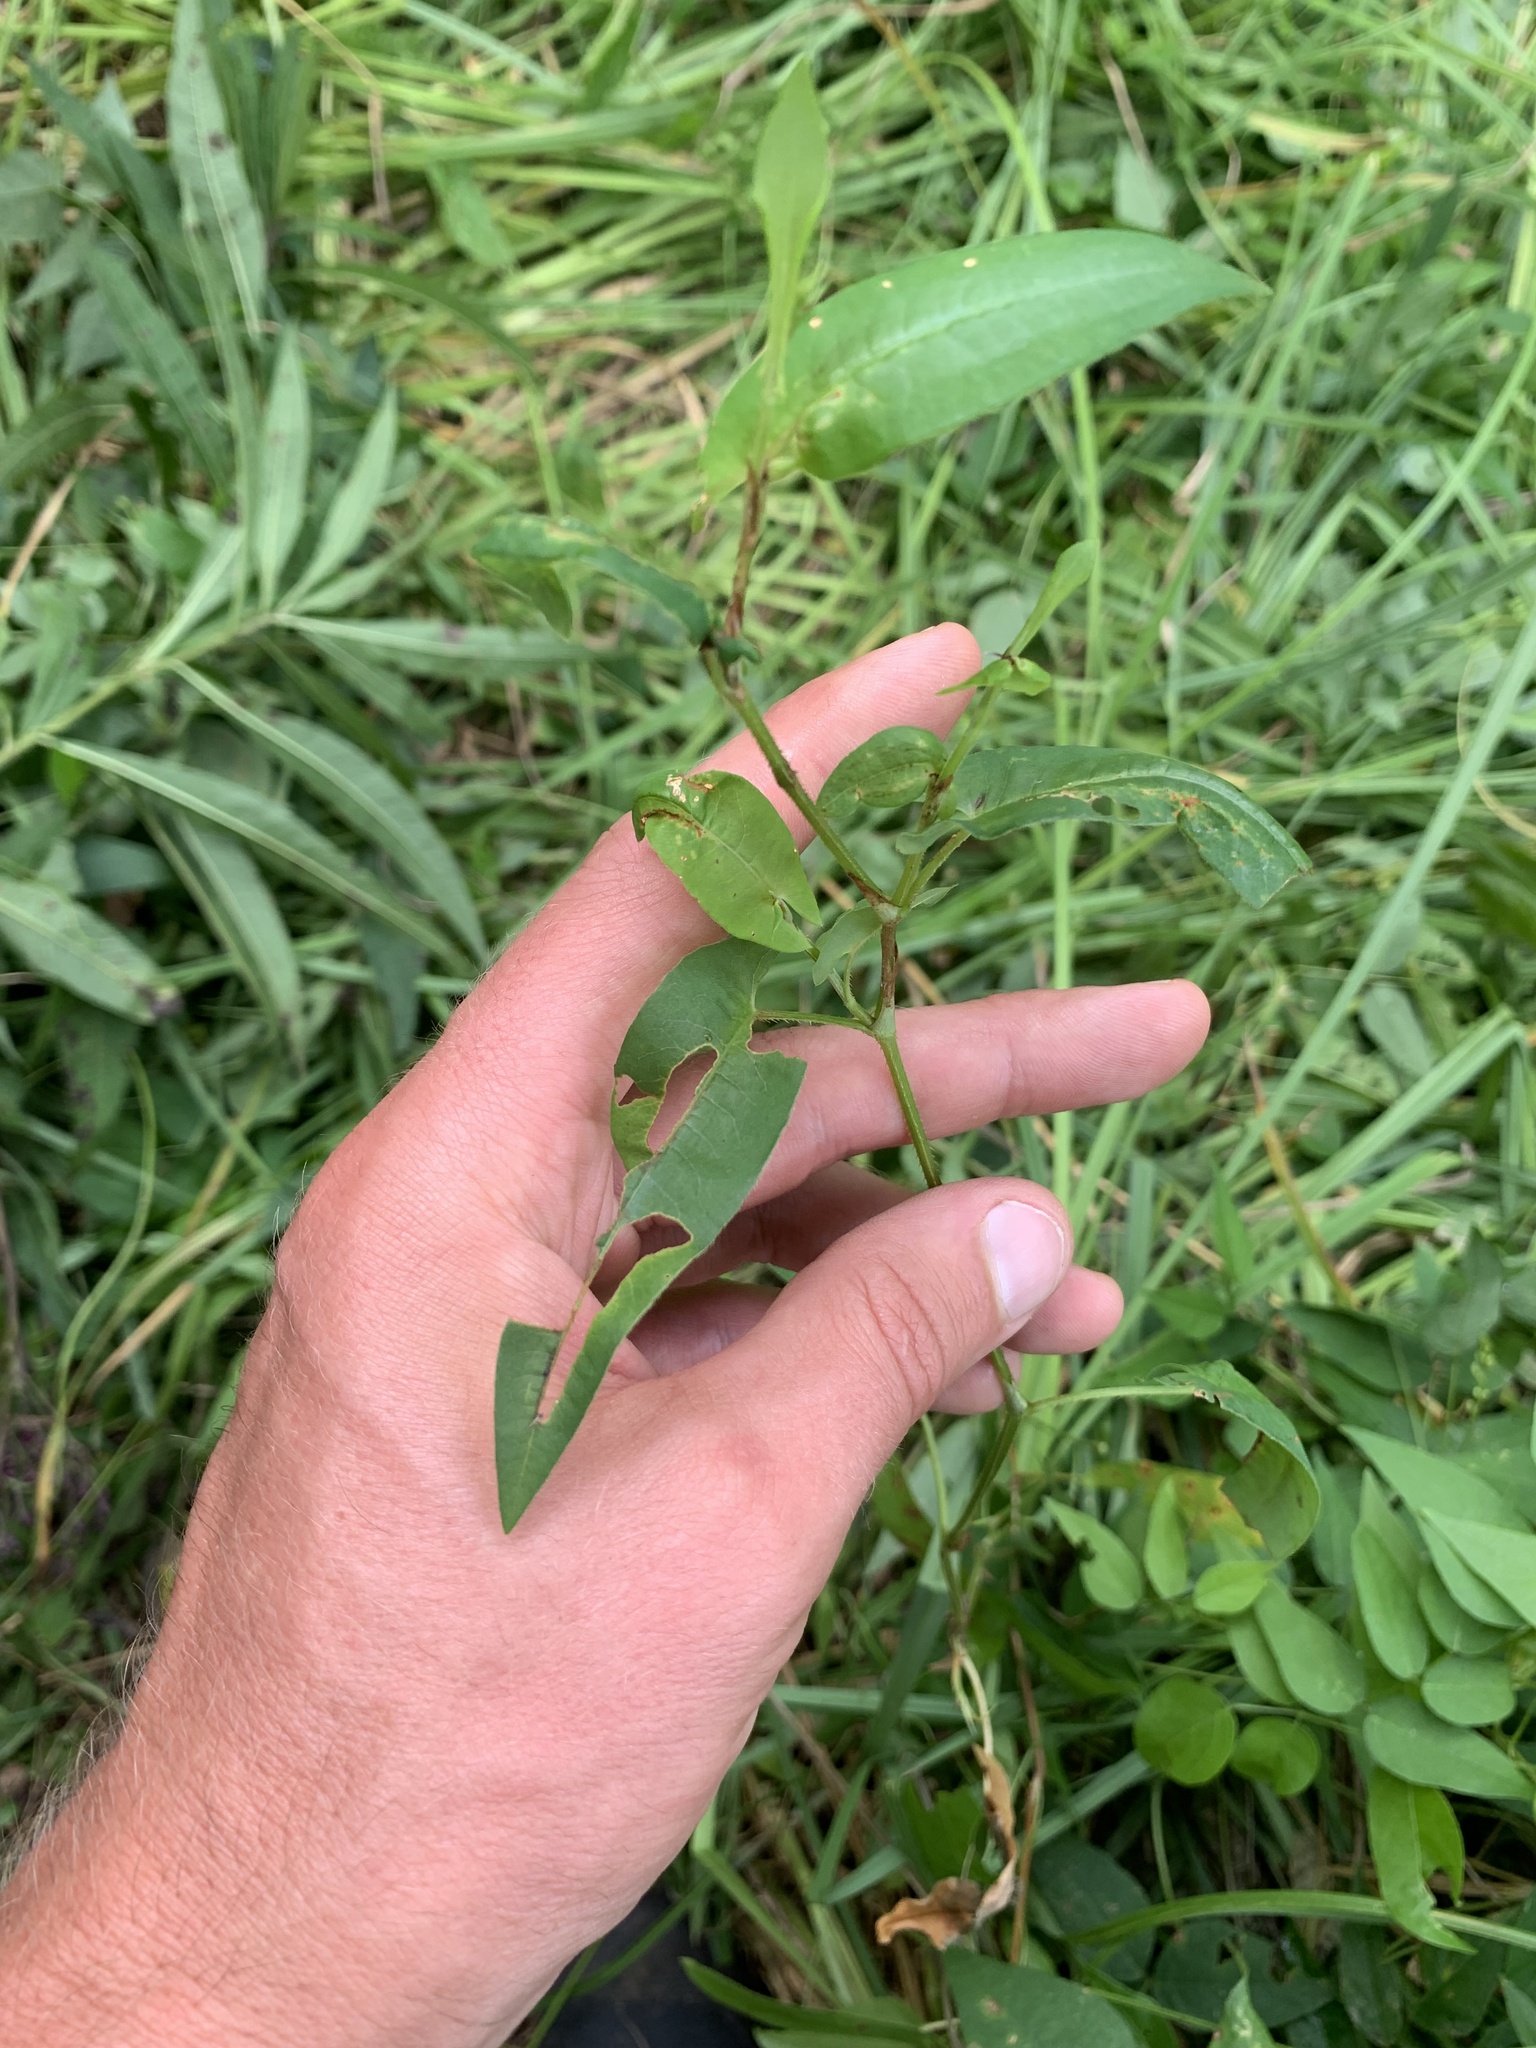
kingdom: Plantae
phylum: Tracheophyta
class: Magnoliopsida
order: Caryophyllales
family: Polygonaceae
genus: Persicaria
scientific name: Persicaria sagittata
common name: American tearthumb
